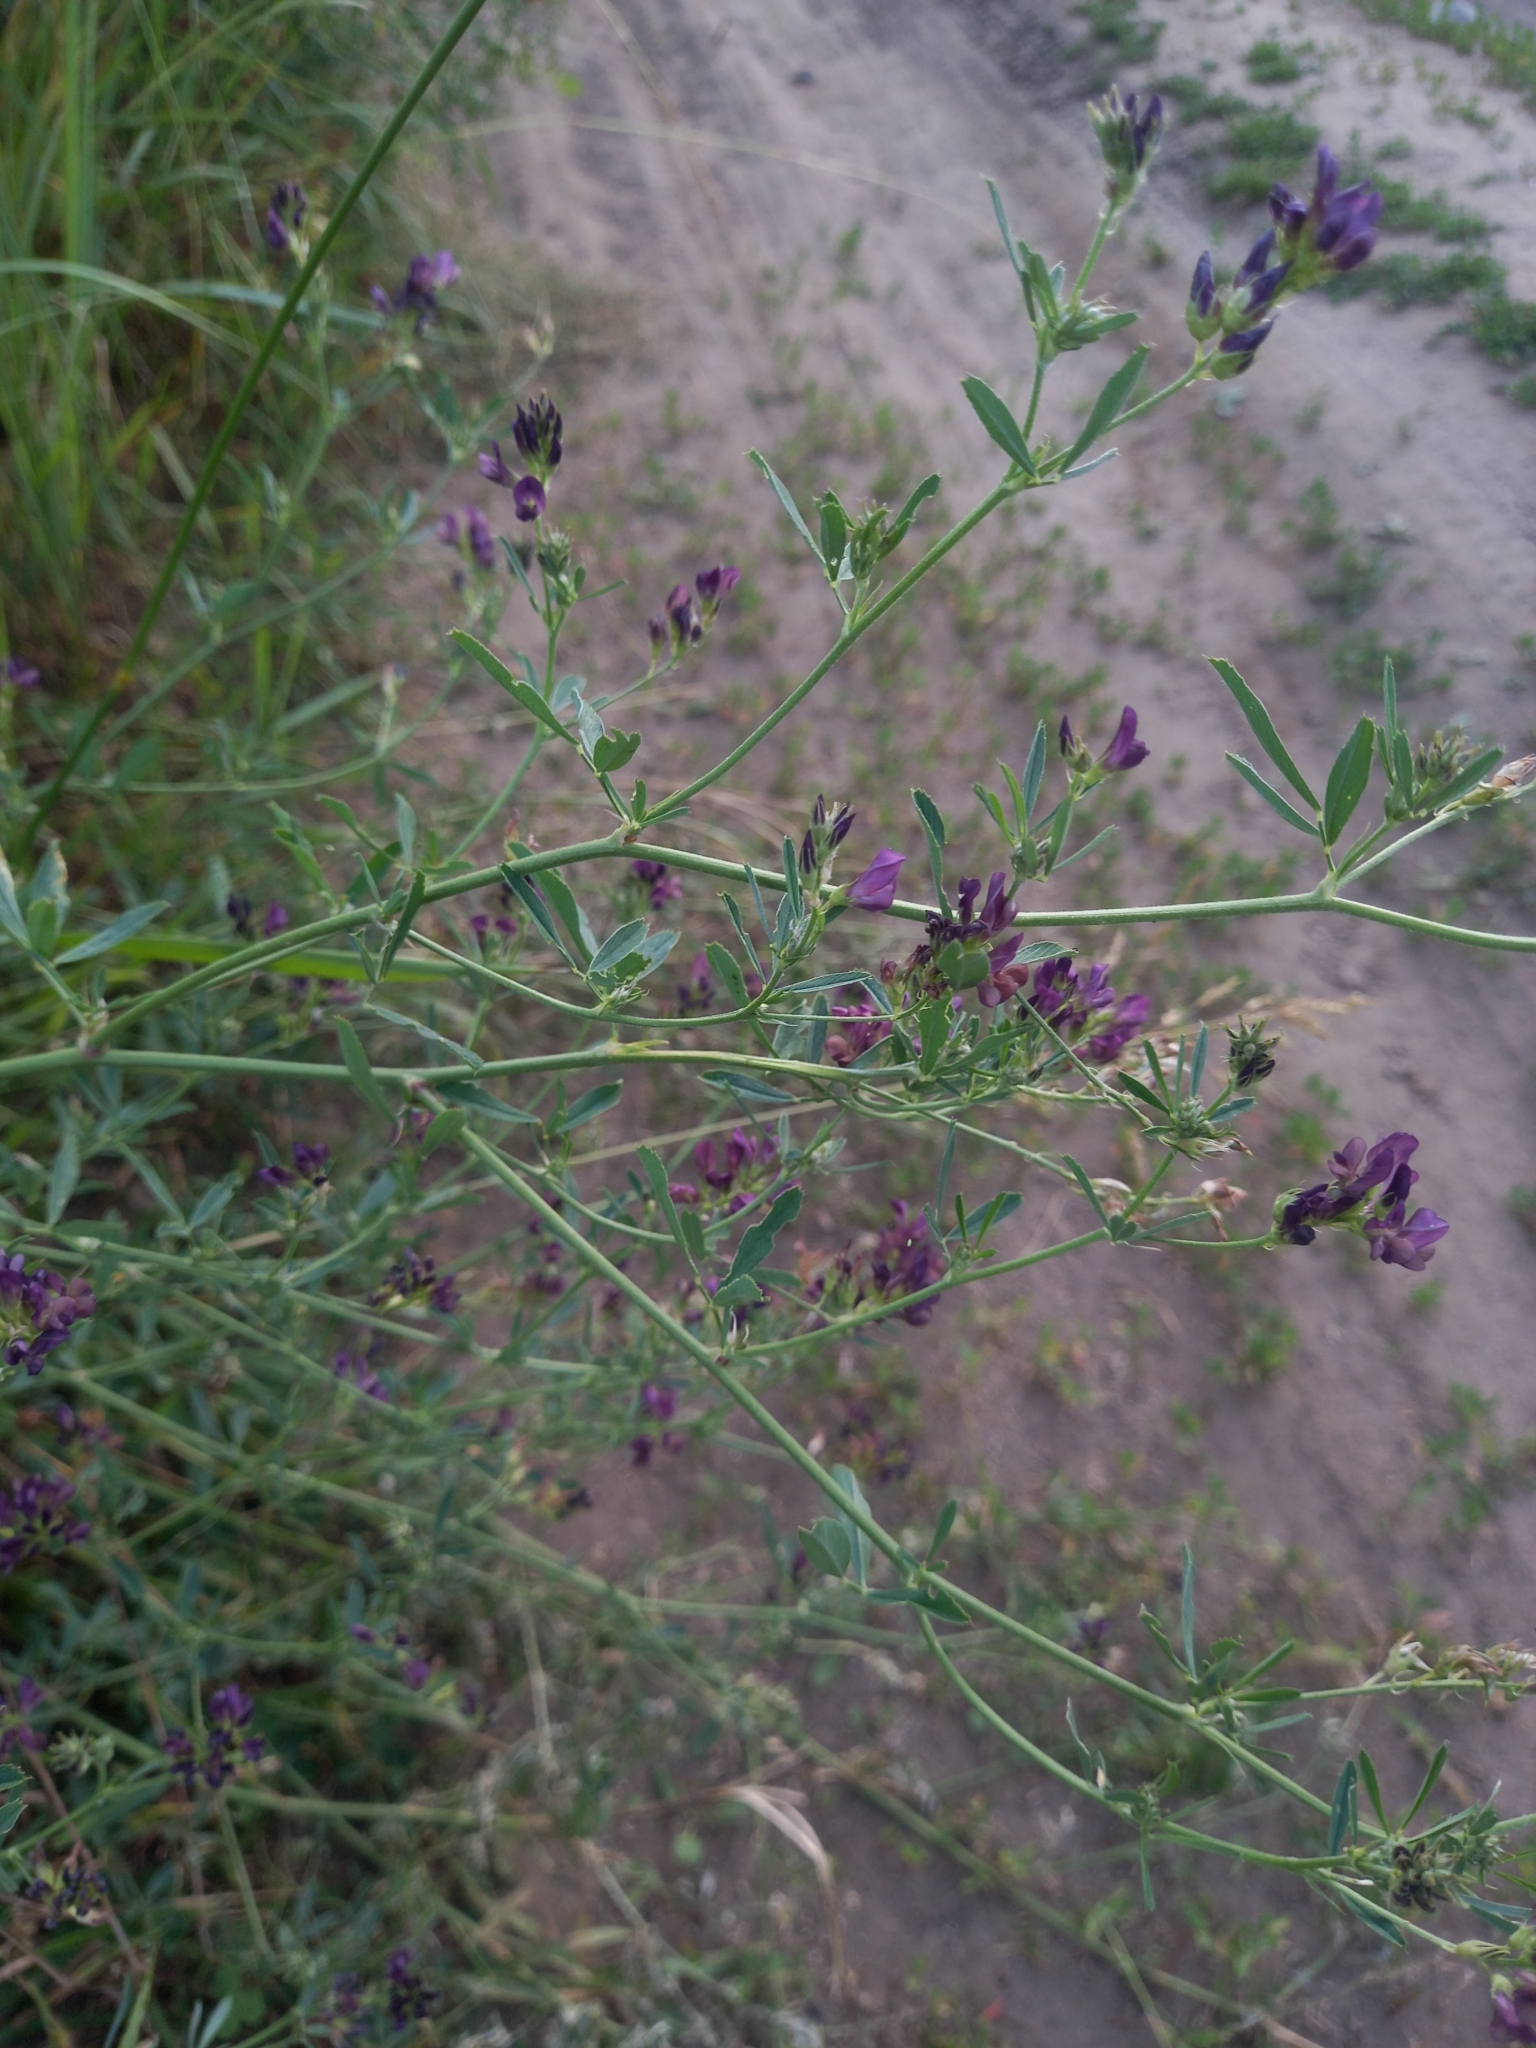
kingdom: Plantae
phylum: Tracheophyta
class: Magnoliopsida
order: Fabales
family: Fabaceae
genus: Medicago
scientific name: Medicago varia
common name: Sand lucerne
